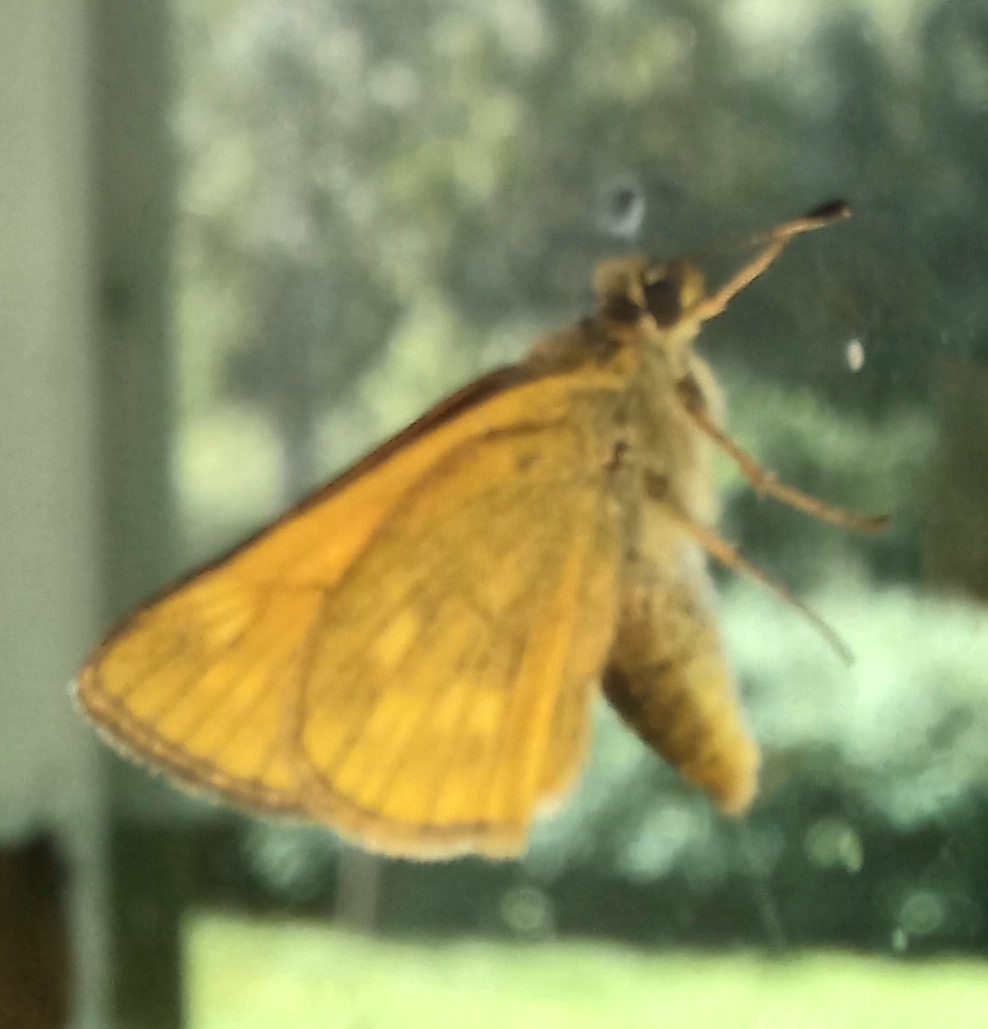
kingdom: Animalia
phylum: Arthropoda
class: Insecta
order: Lepidoptera
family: Hesperiidae
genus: Ochlodes
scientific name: Ochlodes venata
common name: Large skipper
